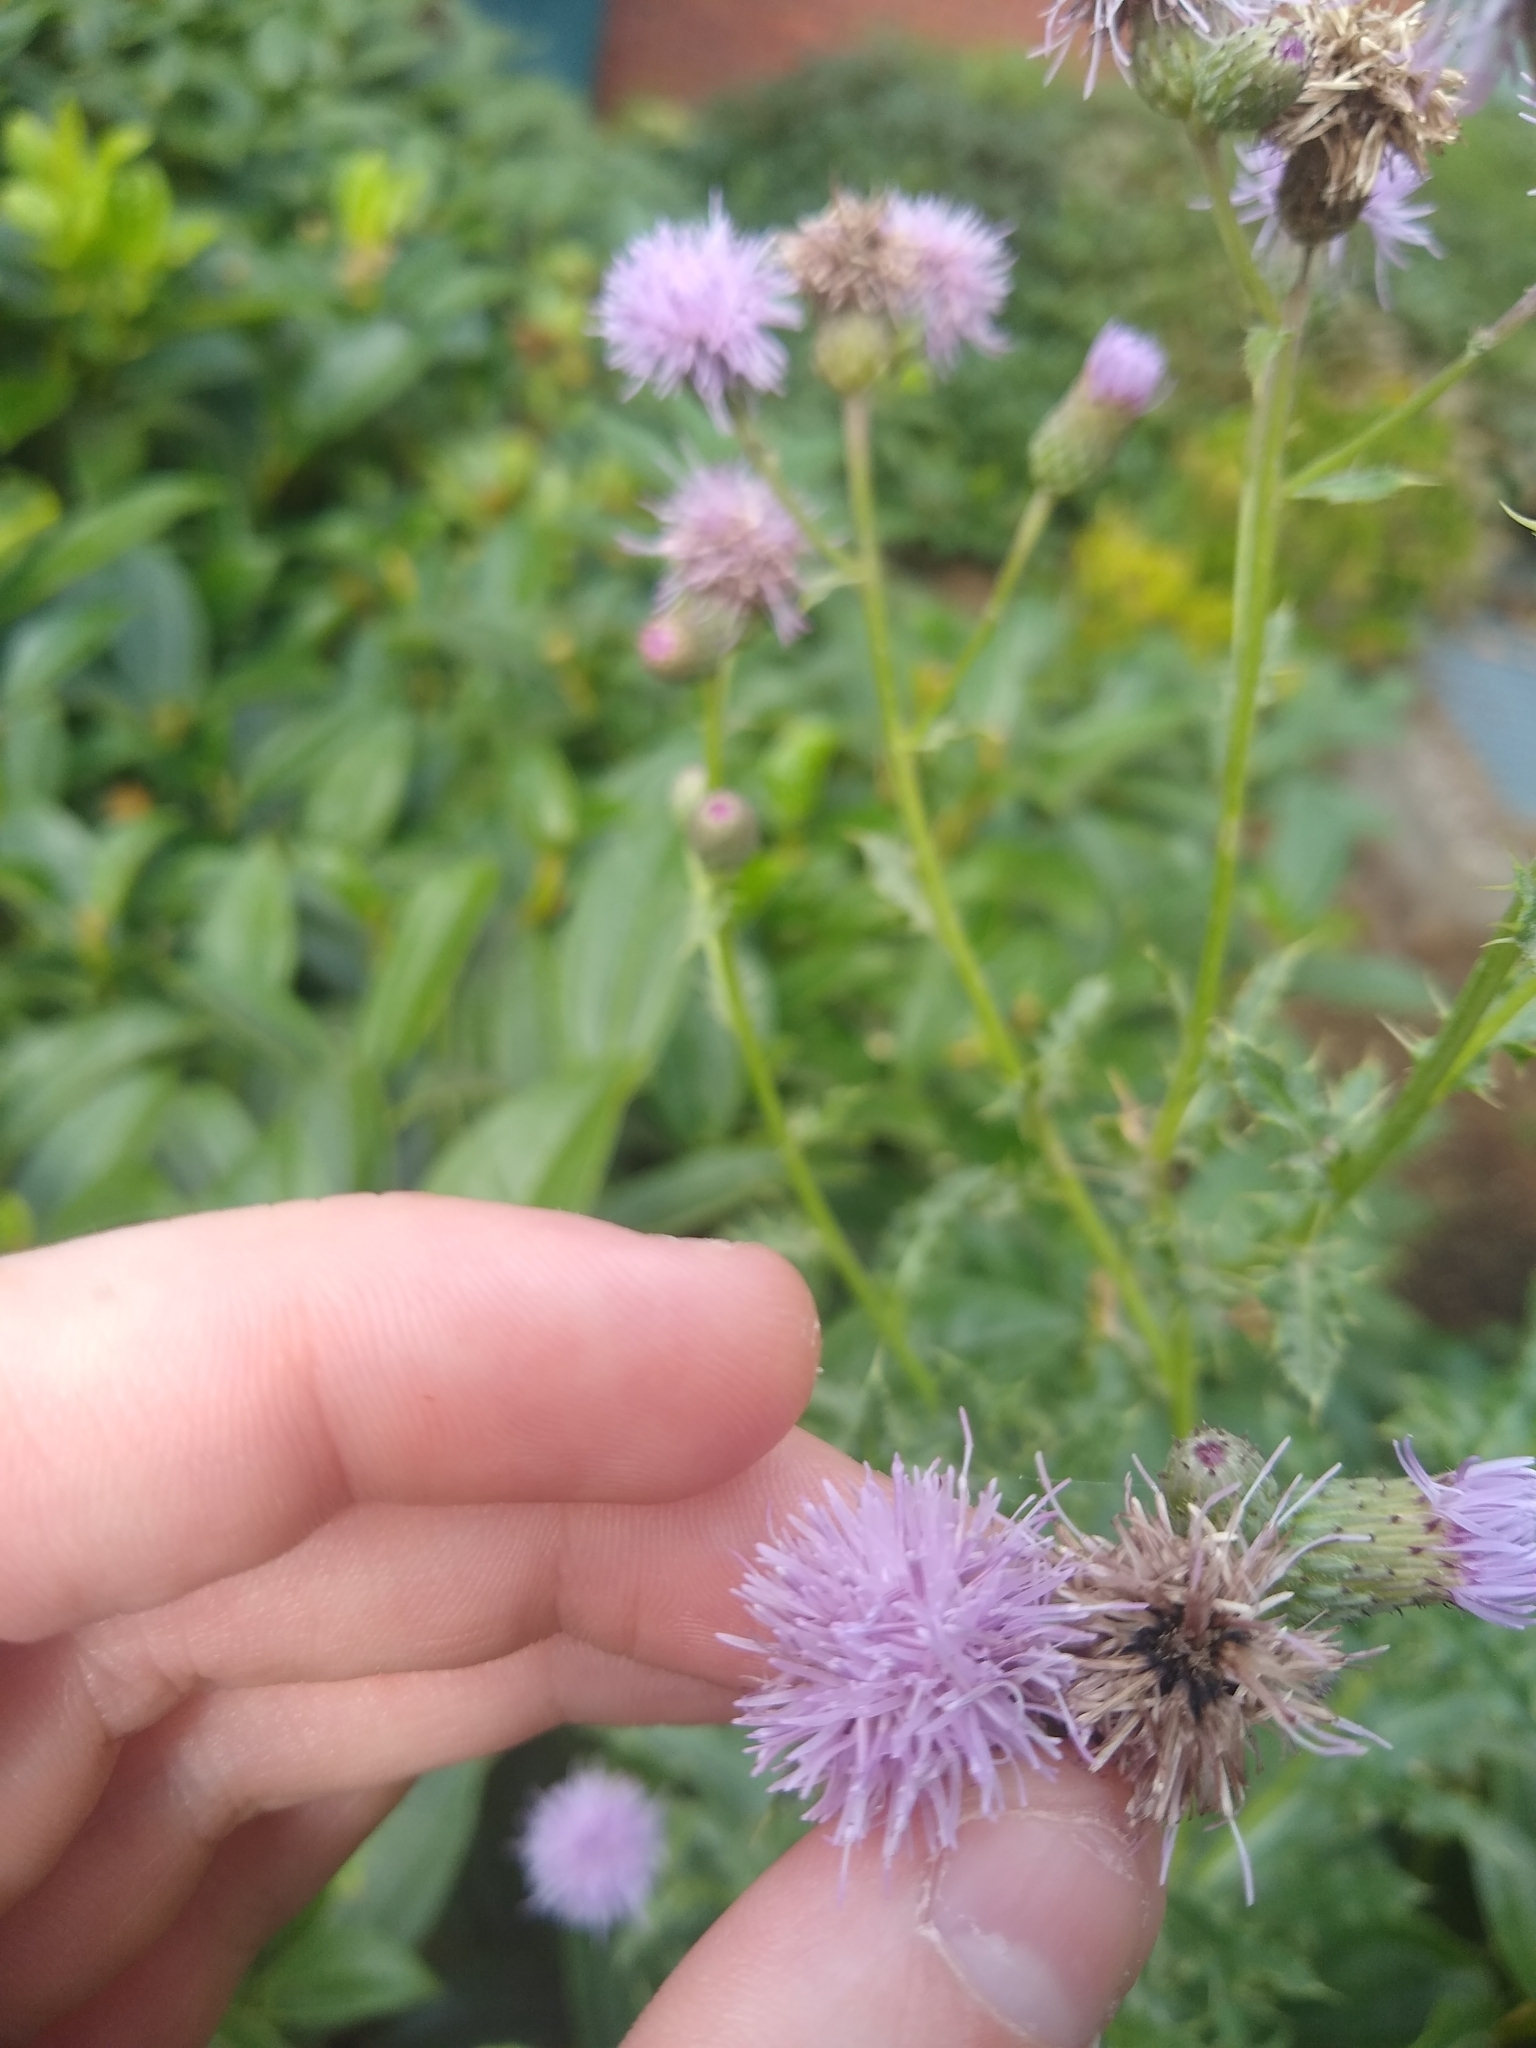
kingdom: Plantae
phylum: Tracheophyta
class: Magnoliopsida
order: Asterales
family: Asteraceae
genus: Cirsium
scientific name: Cirsium arvense
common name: Creeping thistle
